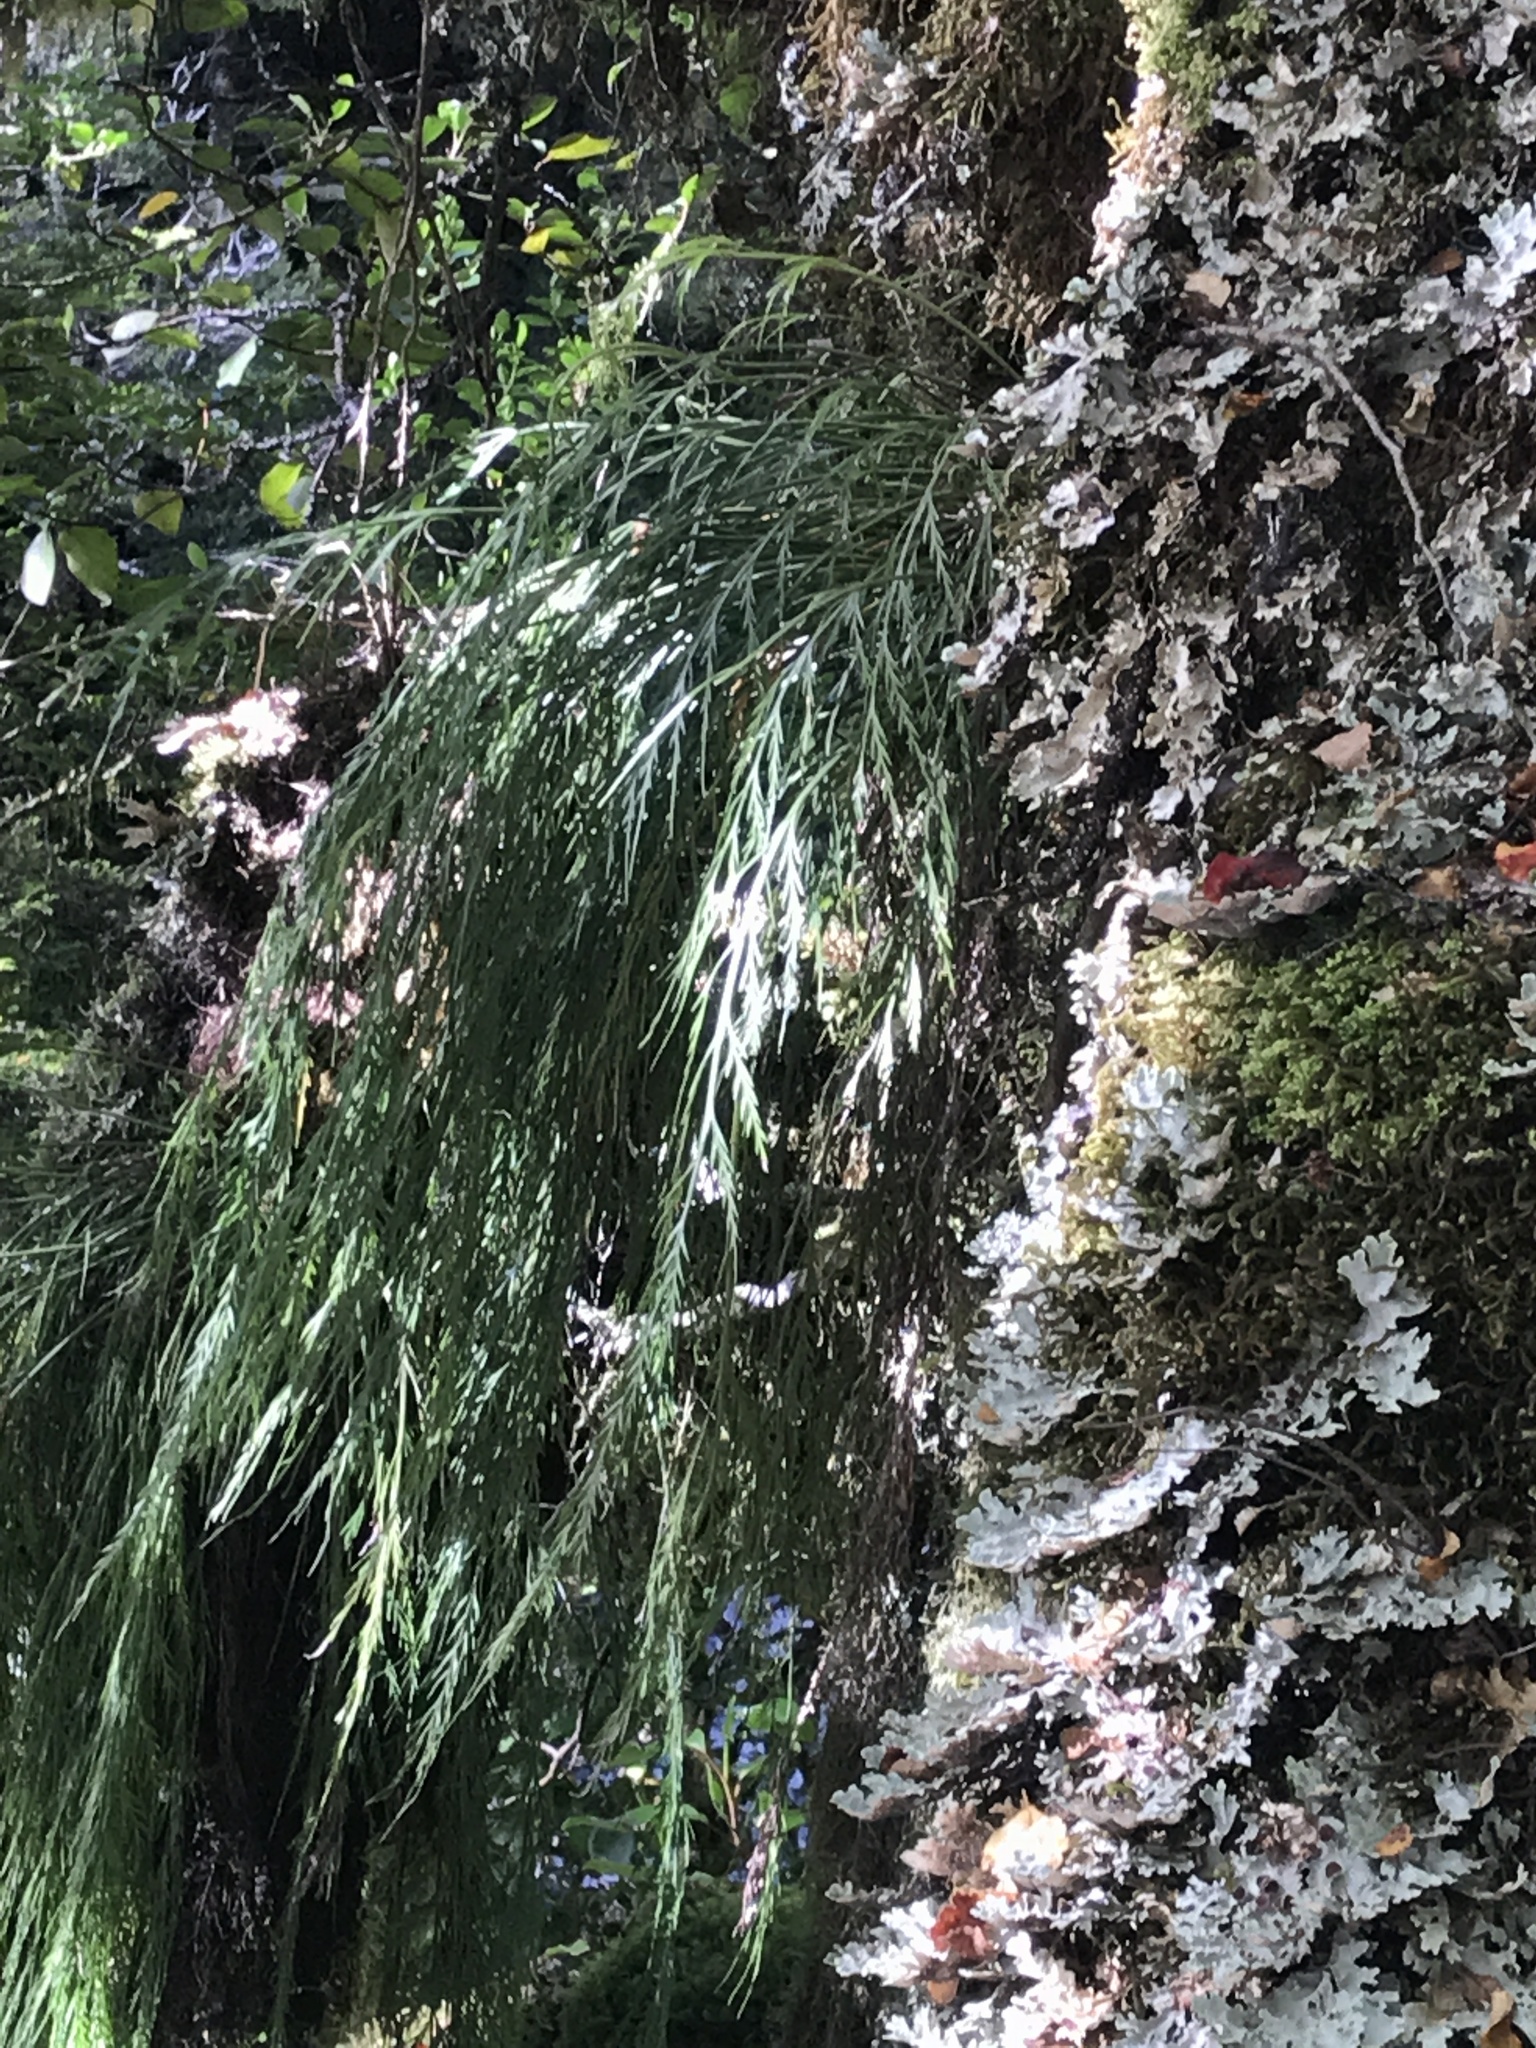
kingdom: Plantae
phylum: Tracheophyta
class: Polypodiopsida
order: Polypodiales
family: Aspleniaceae
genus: Asplenium
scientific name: Asplenium flaccidum
